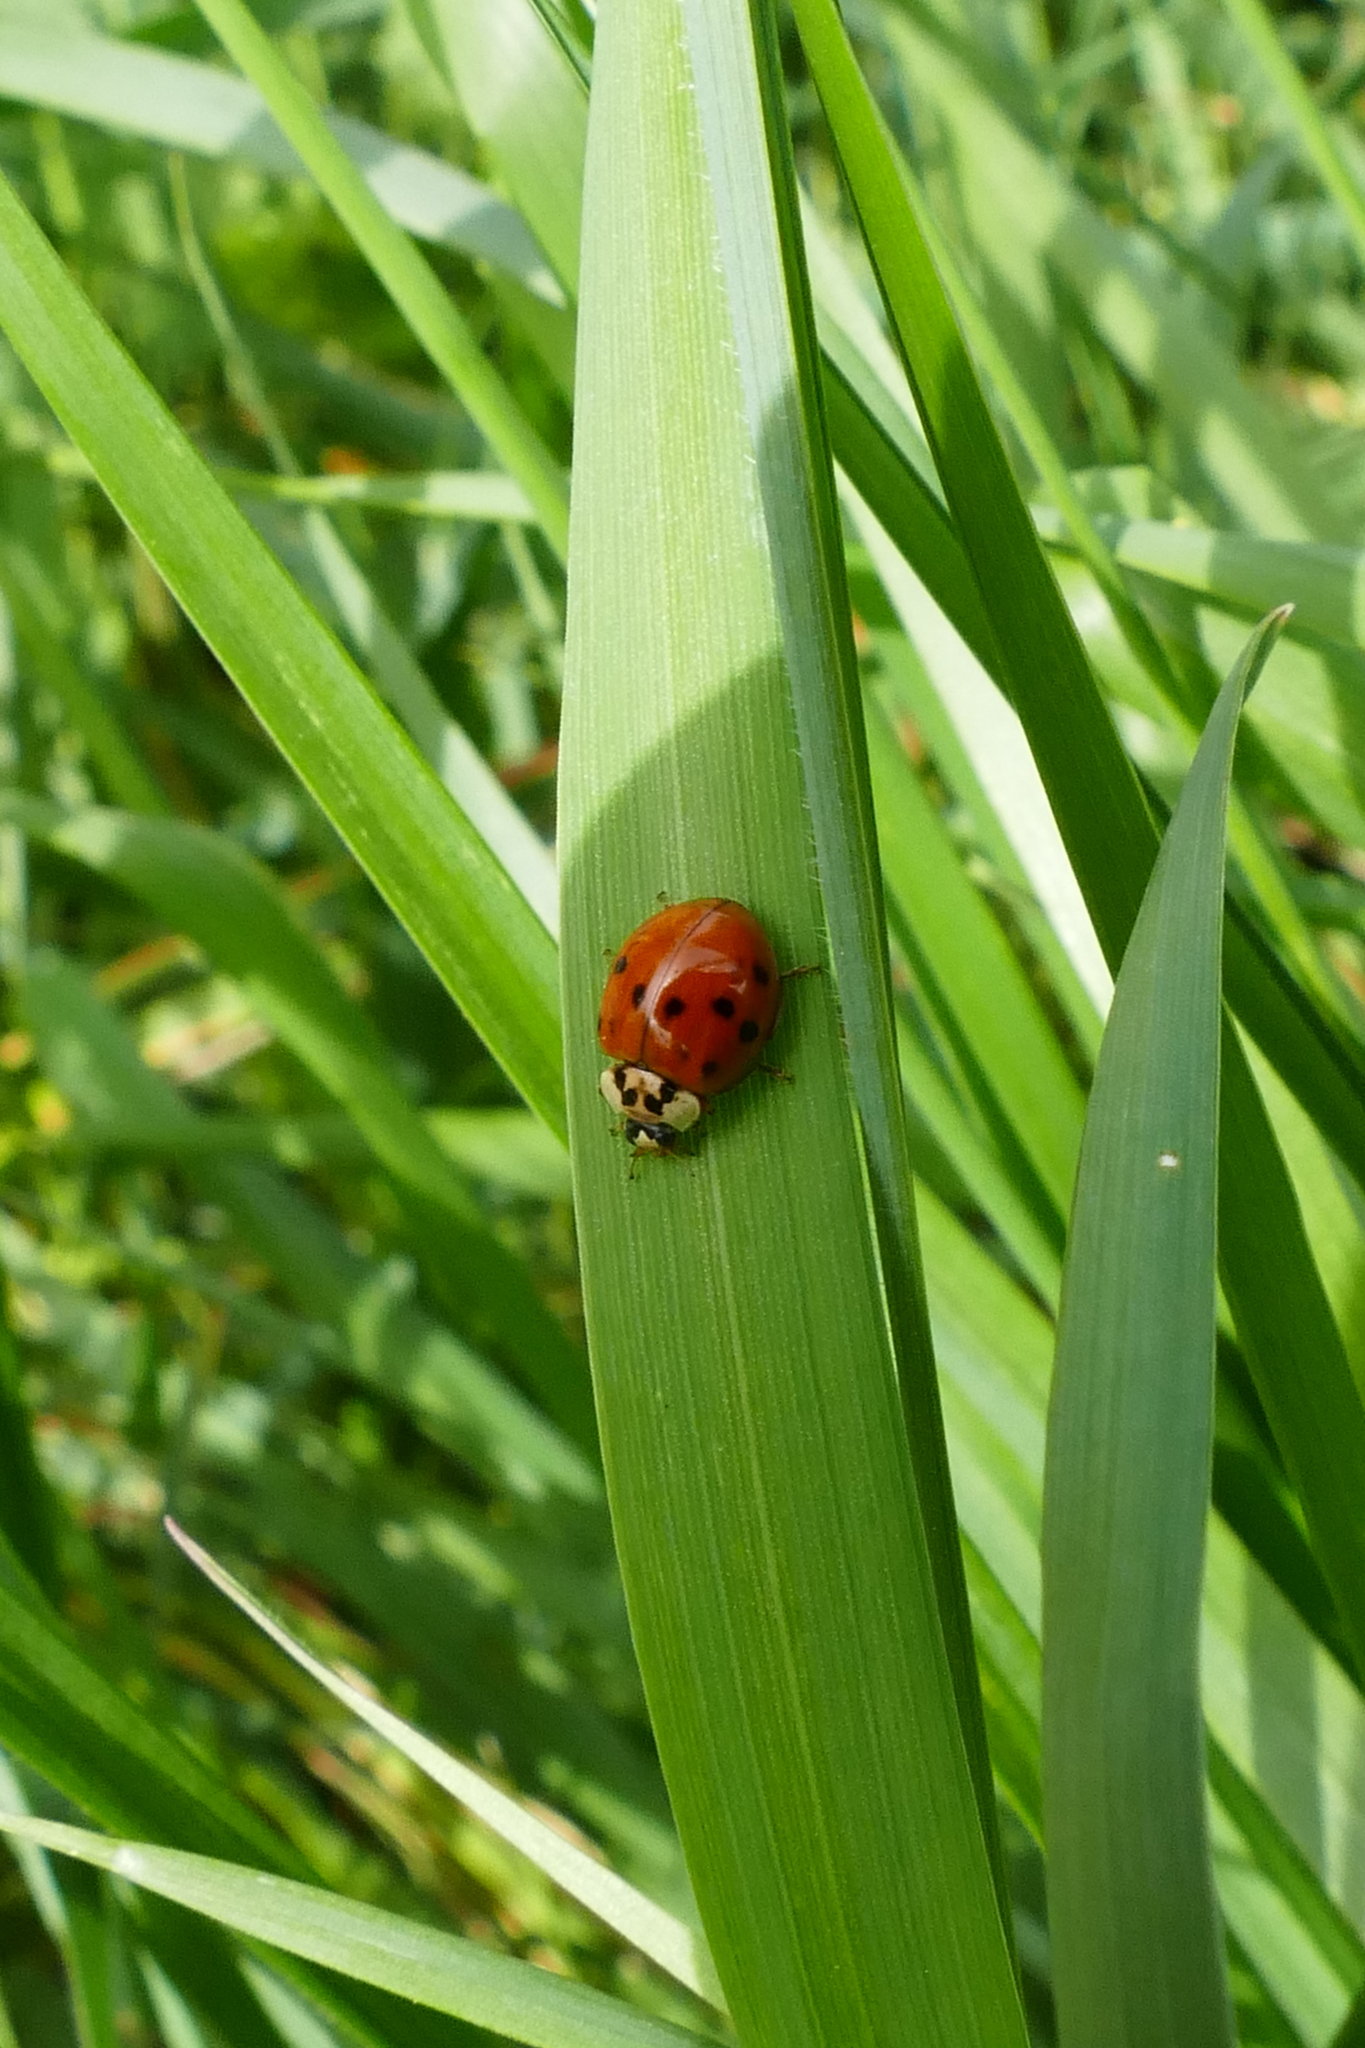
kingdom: Animalia
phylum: Arthropoda
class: Insecta
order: Coleoptera
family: Coccinellidae
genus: Harmonia
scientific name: Harmonia axyridis
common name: Harlequin ladybird
